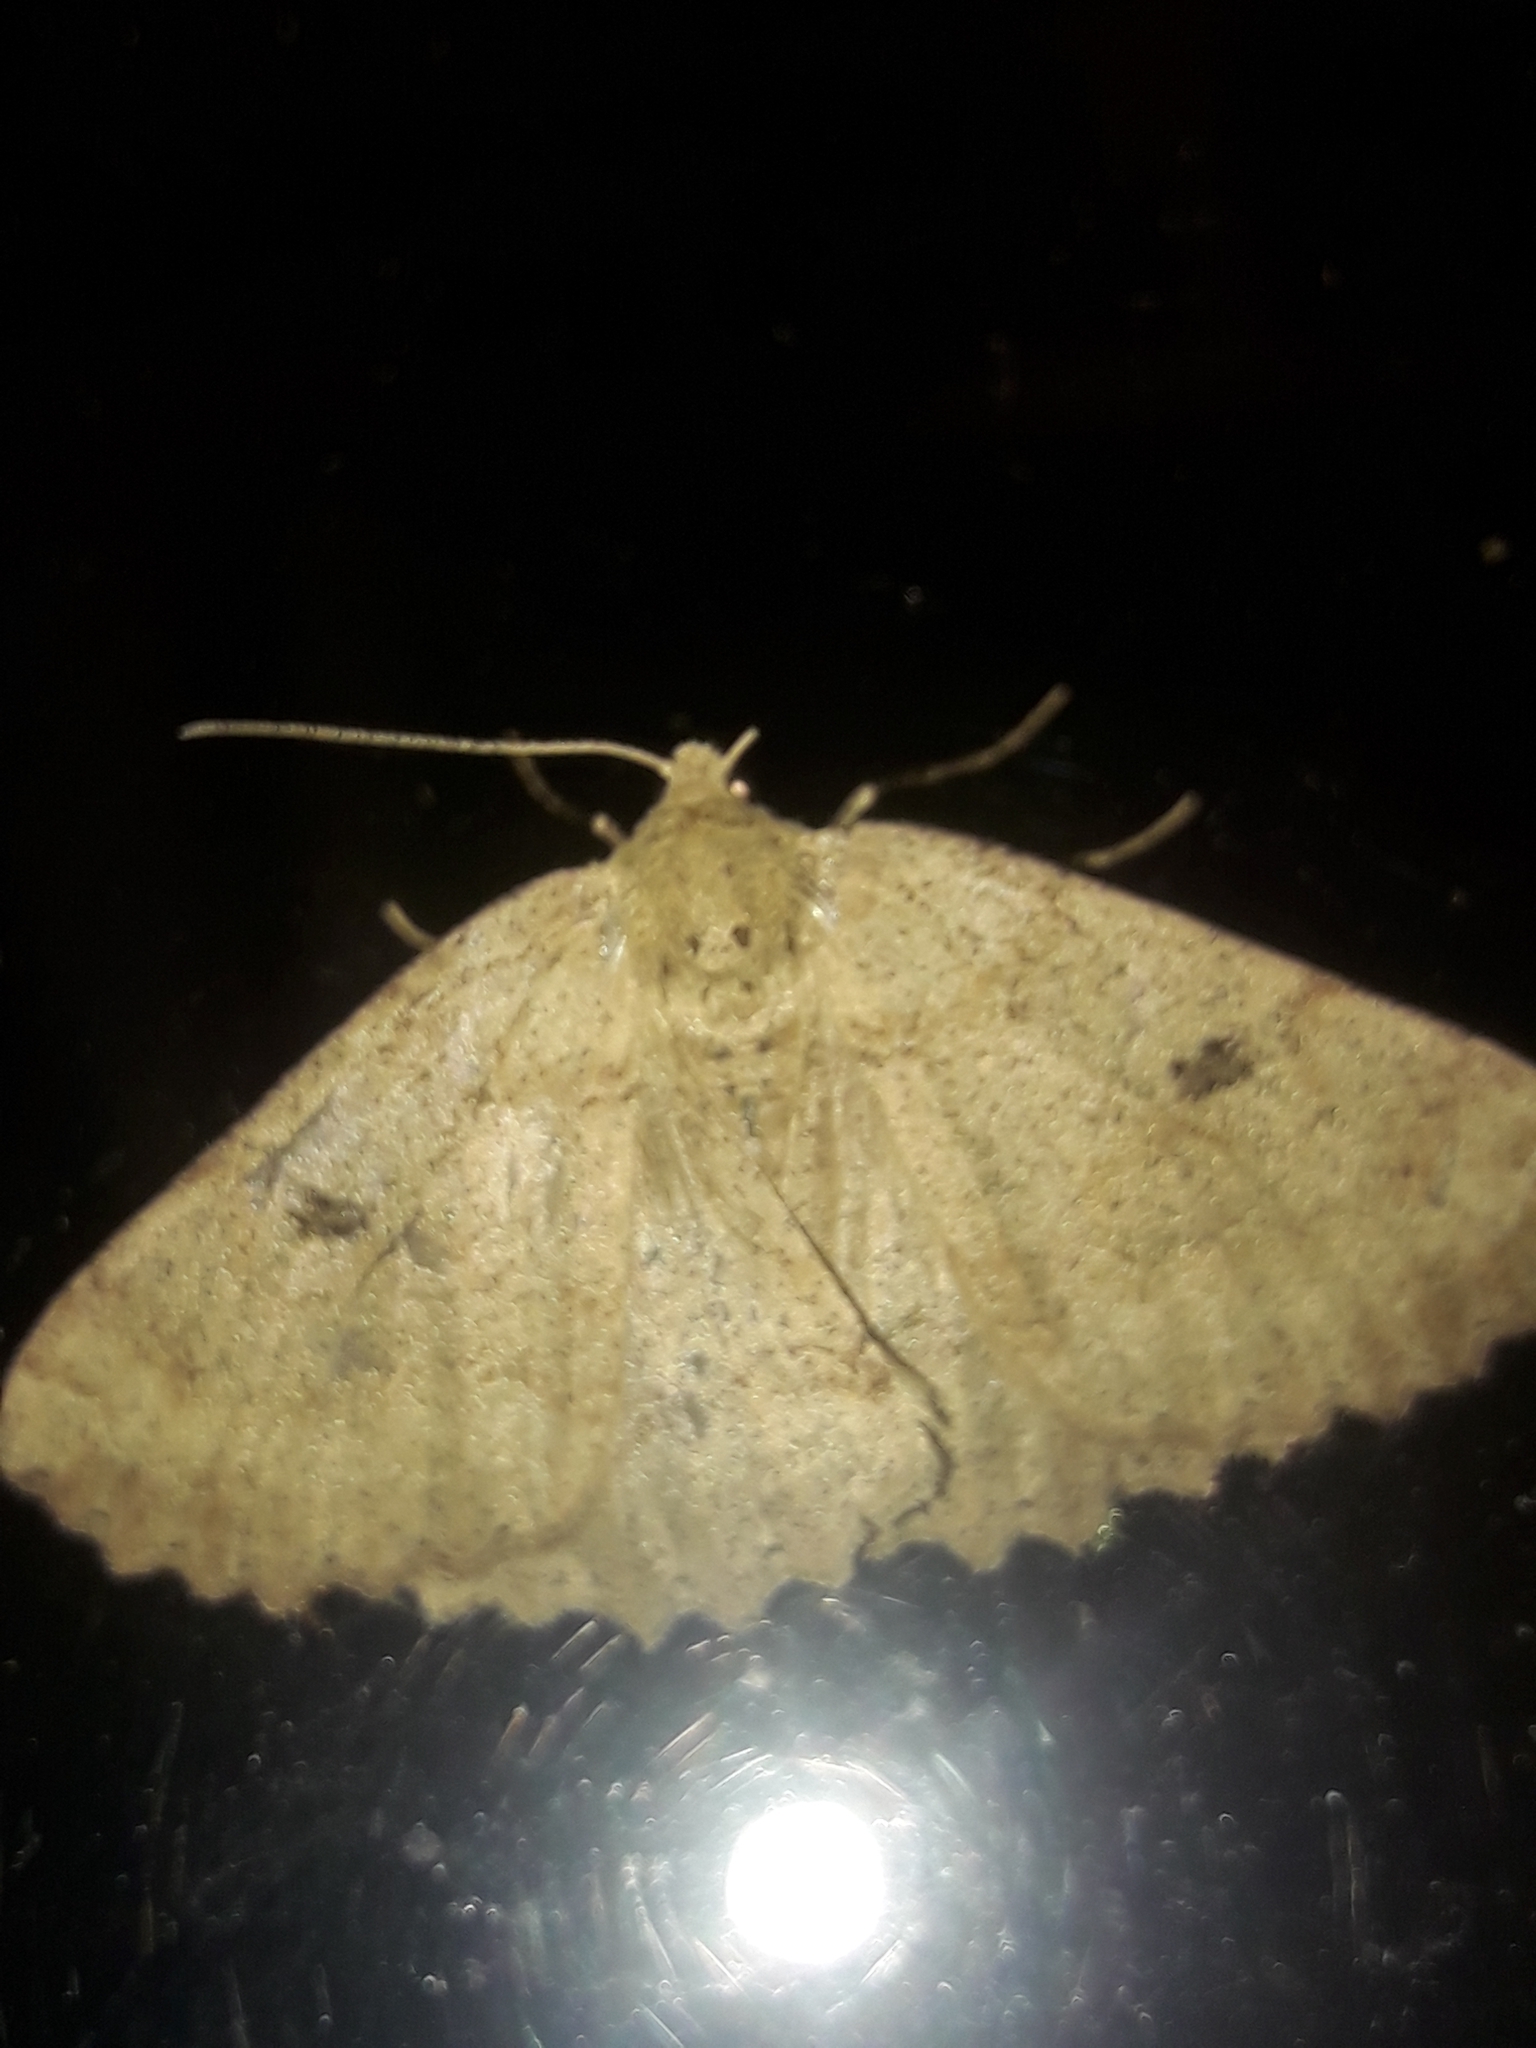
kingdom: Animalia
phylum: Arthropoda
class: Insecta
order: Lepidoptera
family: Geometridae
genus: Cleora
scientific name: Cleora scriptaria
